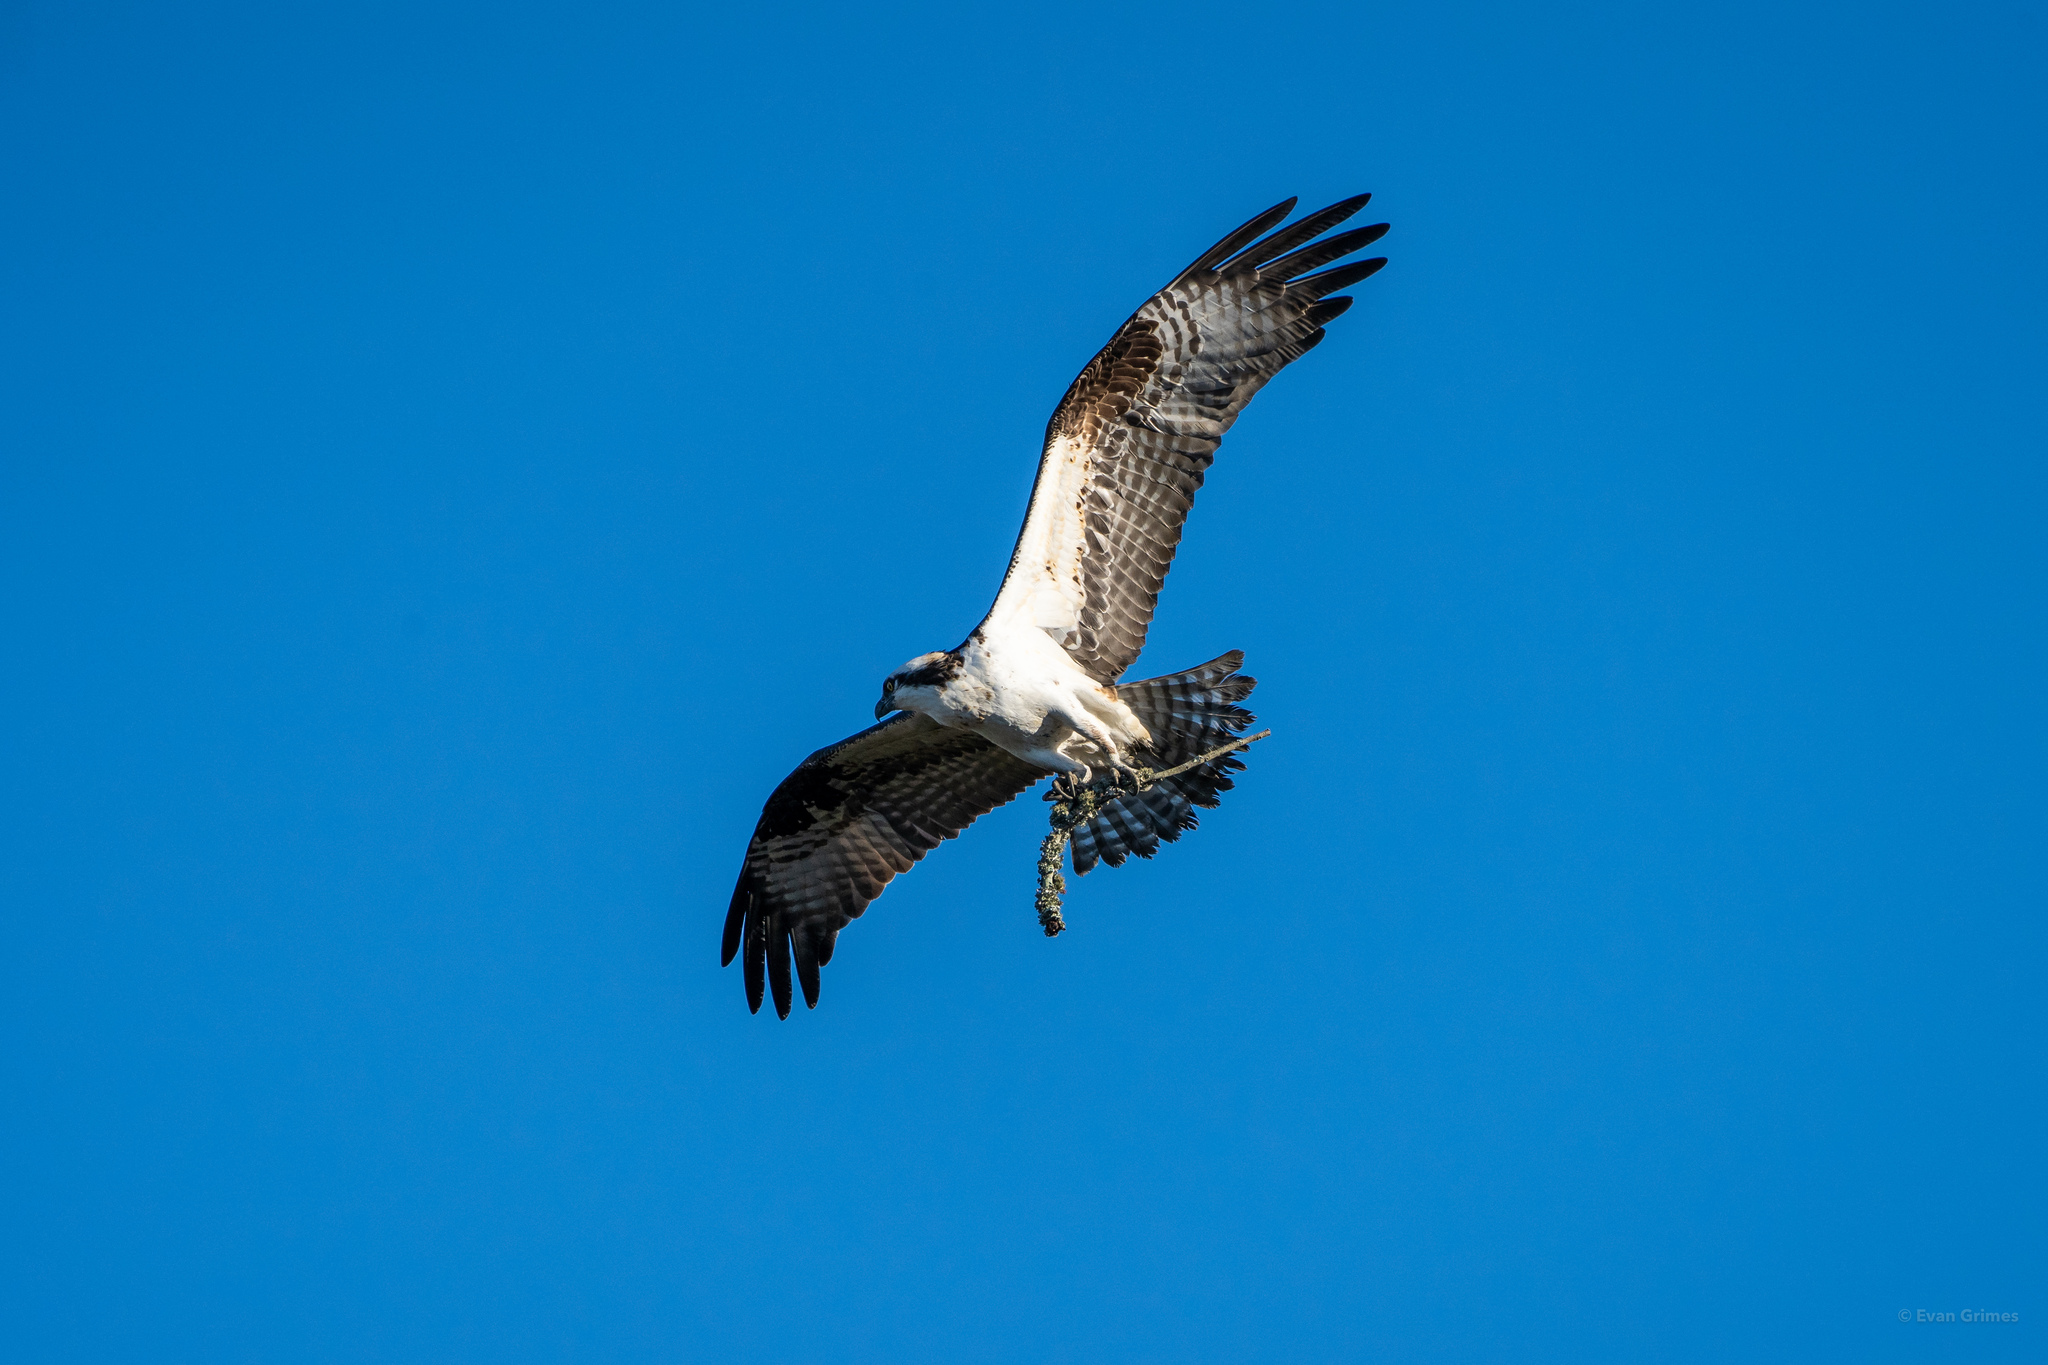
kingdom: Animalia
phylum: Chordata
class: Aves
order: Accipitriformes
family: Pandionidae
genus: Pandion
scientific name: Pandion haliaetus
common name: Osprey
